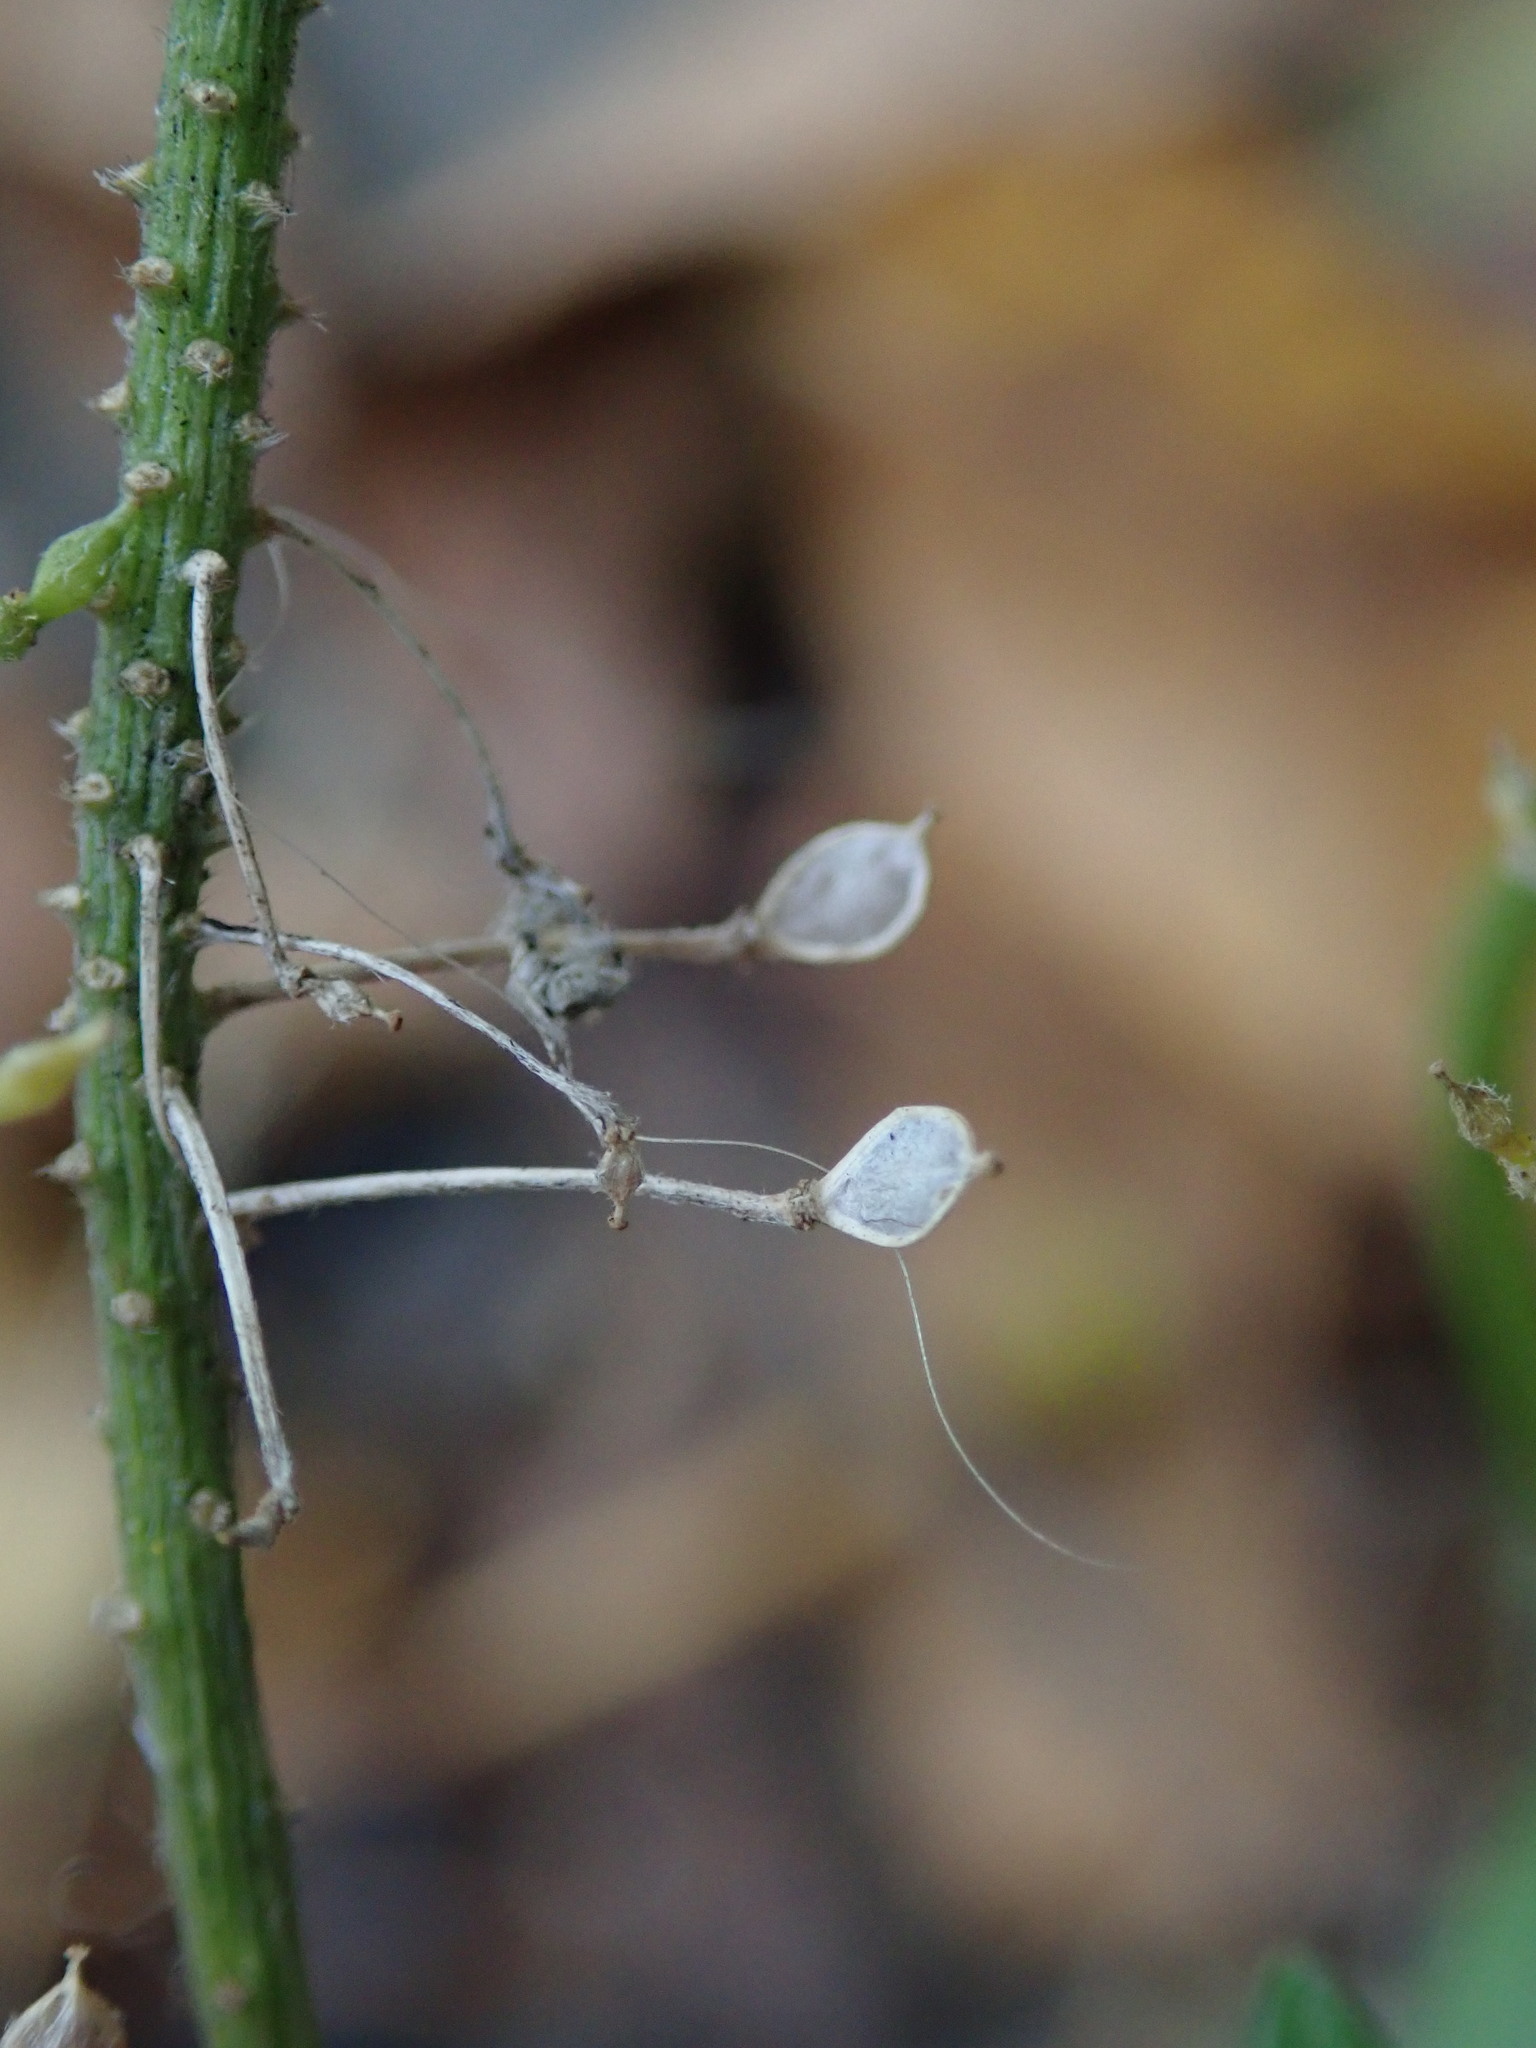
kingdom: Plantae
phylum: Tracheophyta
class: Magnoliopsida
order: Brassicales
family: Brassicaceae
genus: Lobularia
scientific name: Lobularia maritima
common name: Sweet alison
